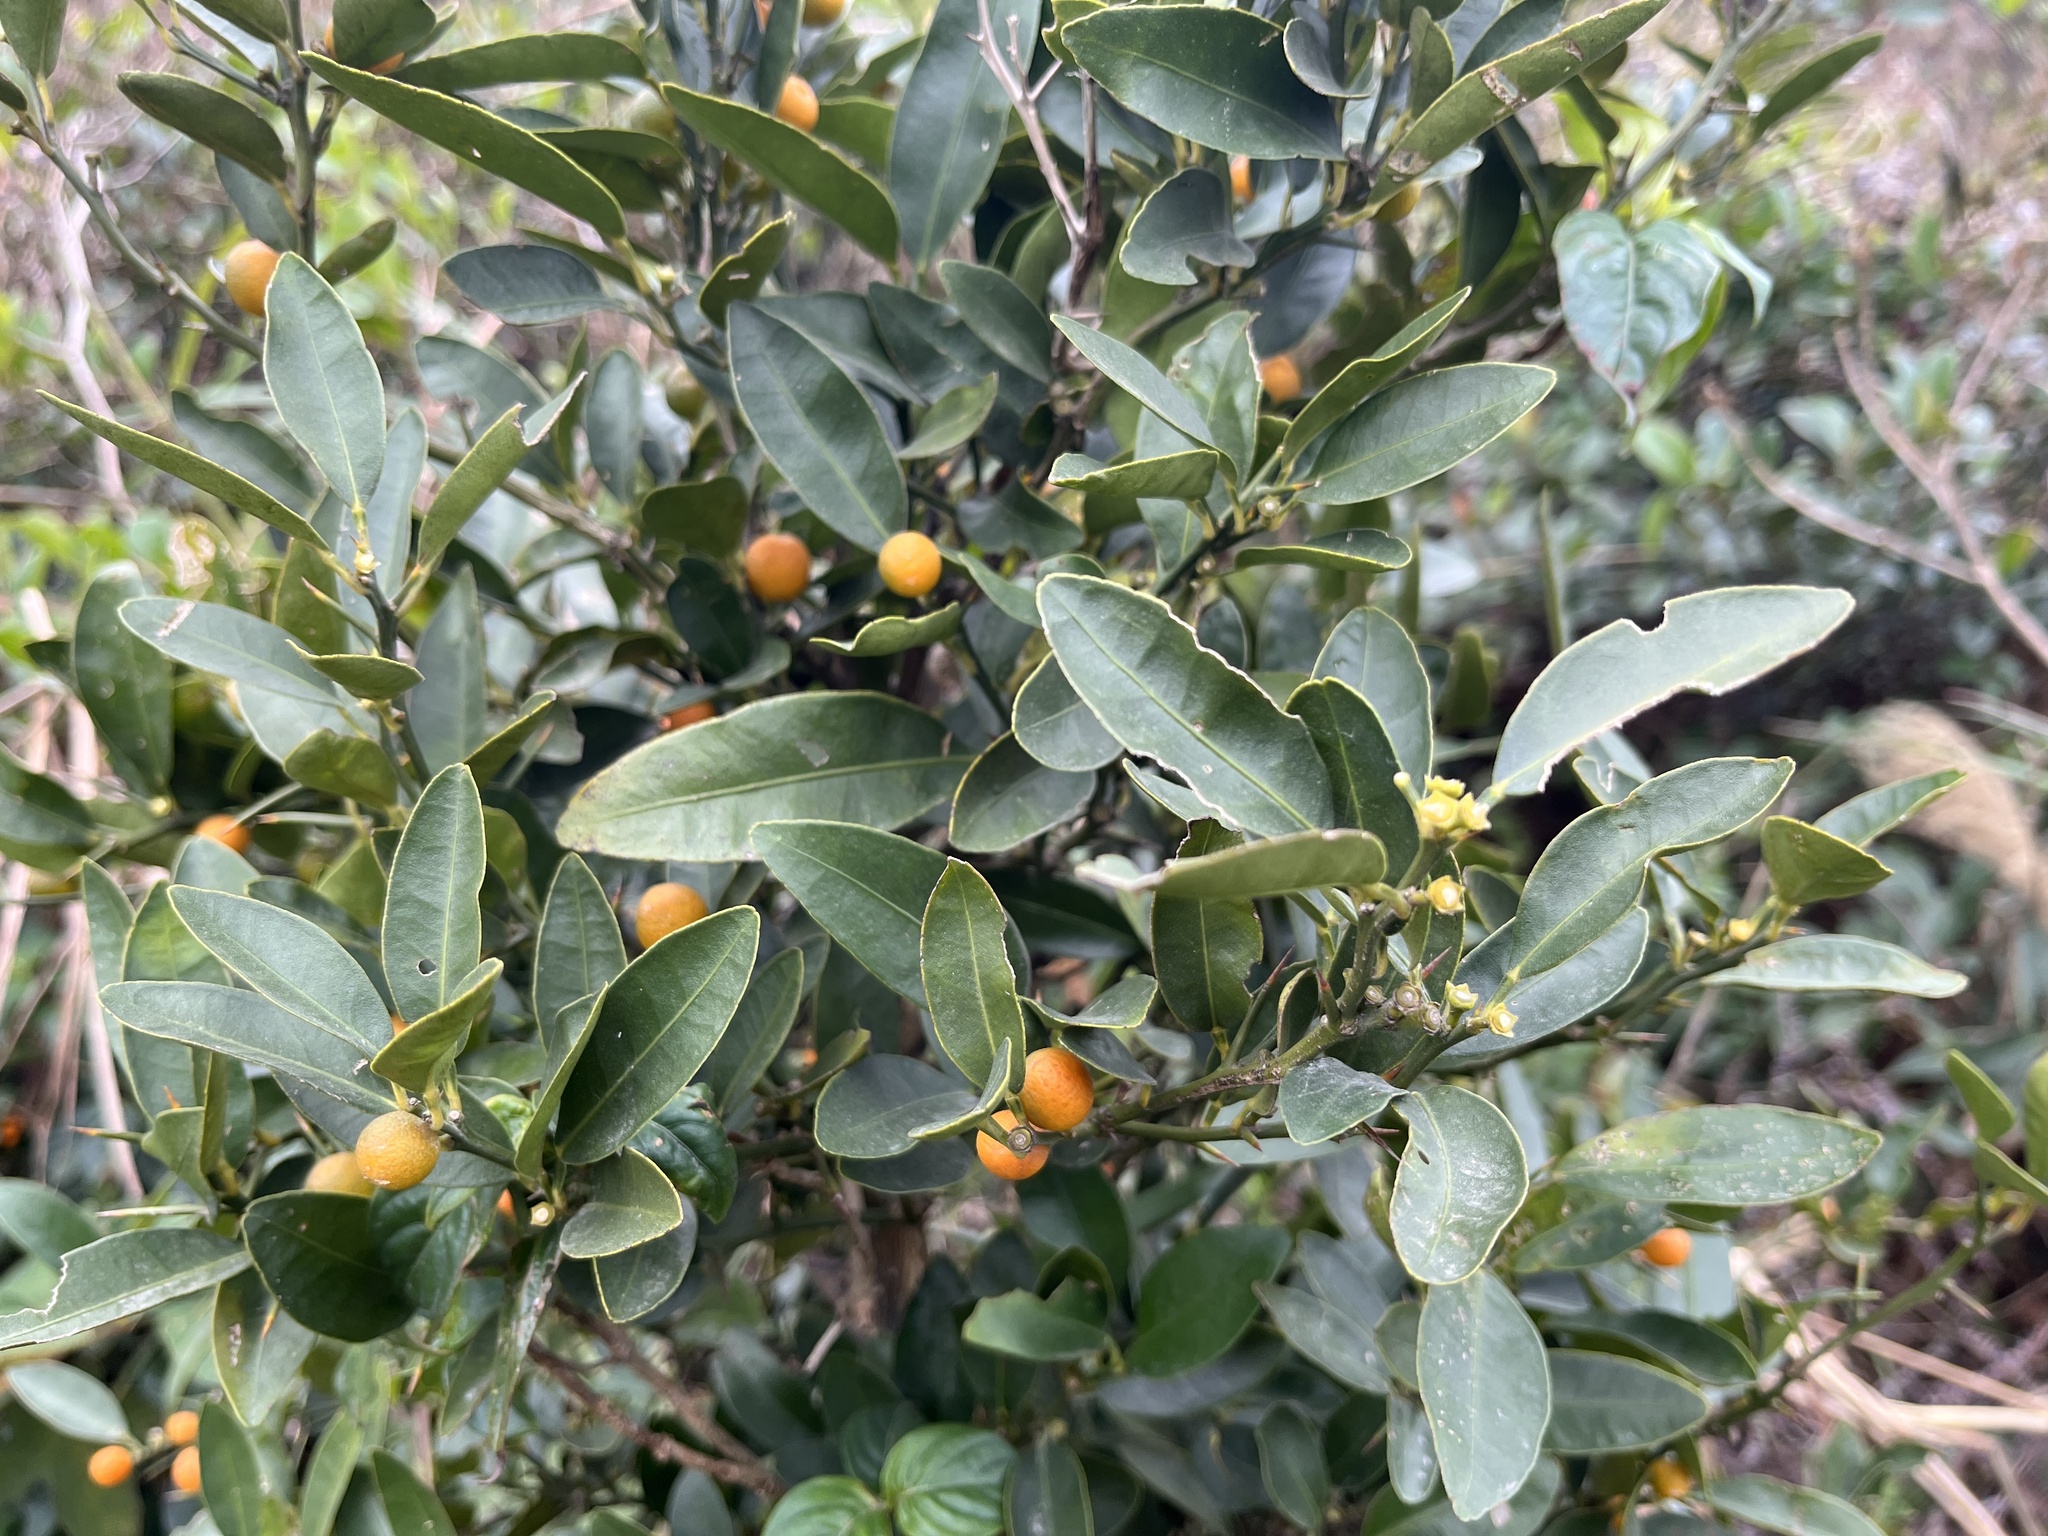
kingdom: Plantae
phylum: Tracheophyta
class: Magnoliopsida
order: Sapindales
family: Rutaceae
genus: Citrus
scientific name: Citrus japonica
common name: Kumquat
